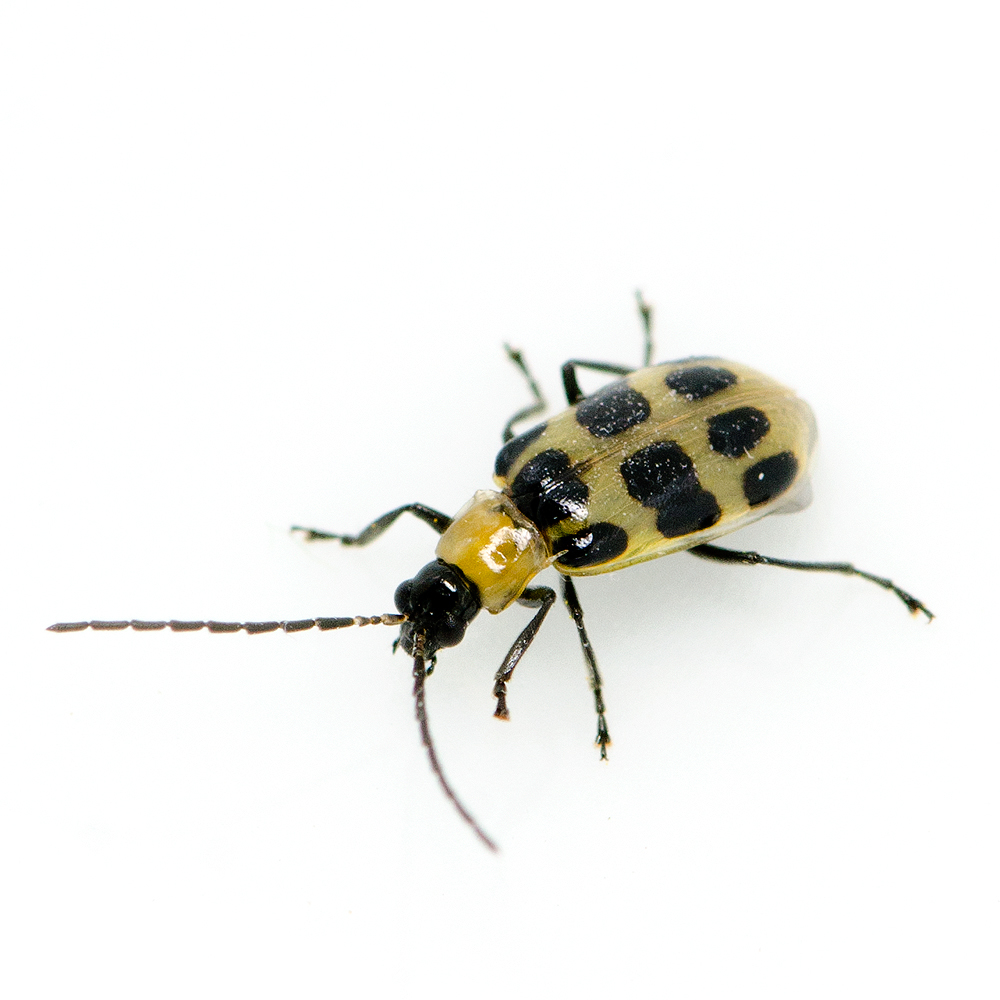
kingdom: Animalia
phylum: Arthropoda
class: Insecta
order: Coleoptera
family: Chrysomelidae
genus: Diabrotica
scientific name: Diabrotica undecimpunctata
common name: Spotted cucumber beetle
